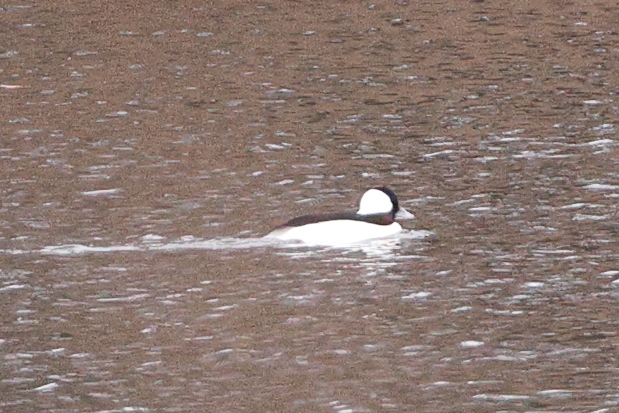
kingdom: Animalia
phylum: Chordata
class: Aves
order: Anseriformes
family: Anatidae
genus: Bucephala
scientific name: Bucephala albeola
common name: Bufflehead
